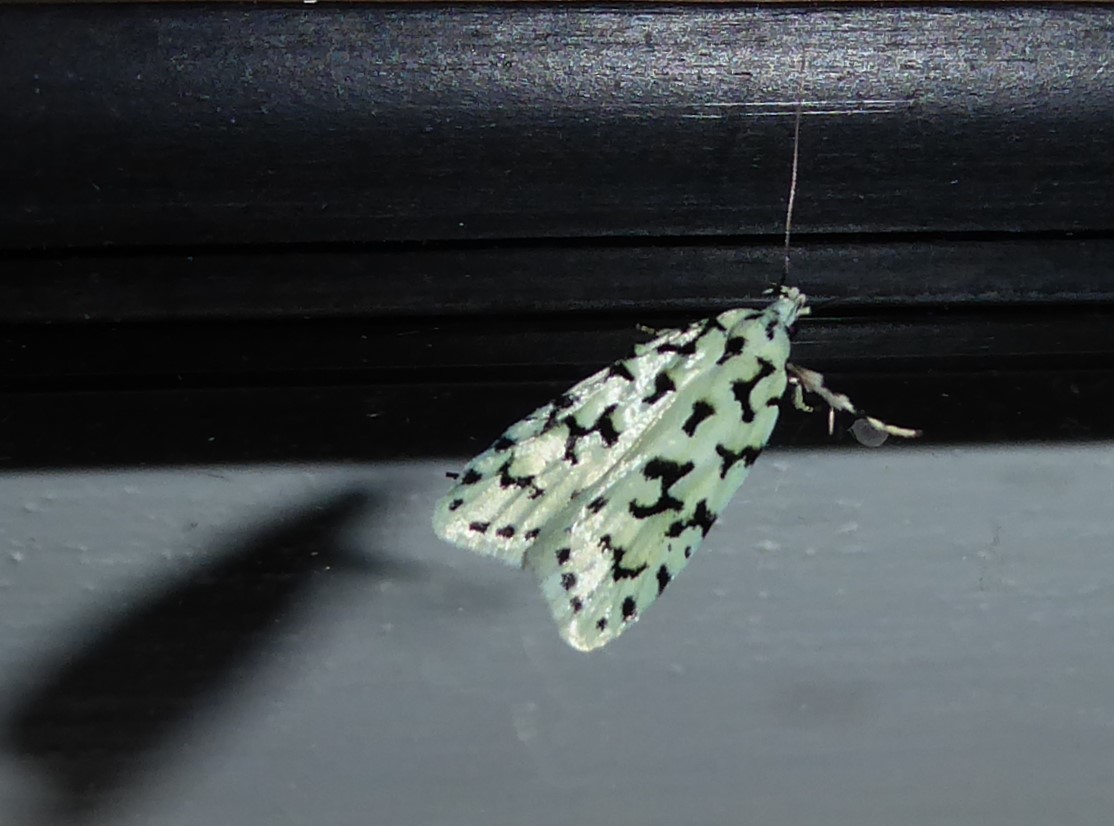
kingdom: Animalia
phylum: Arthropoda
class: Insecta
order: Lepidoptera
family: Oecophoridae
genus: Izatha
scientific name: Izatha huttoni
